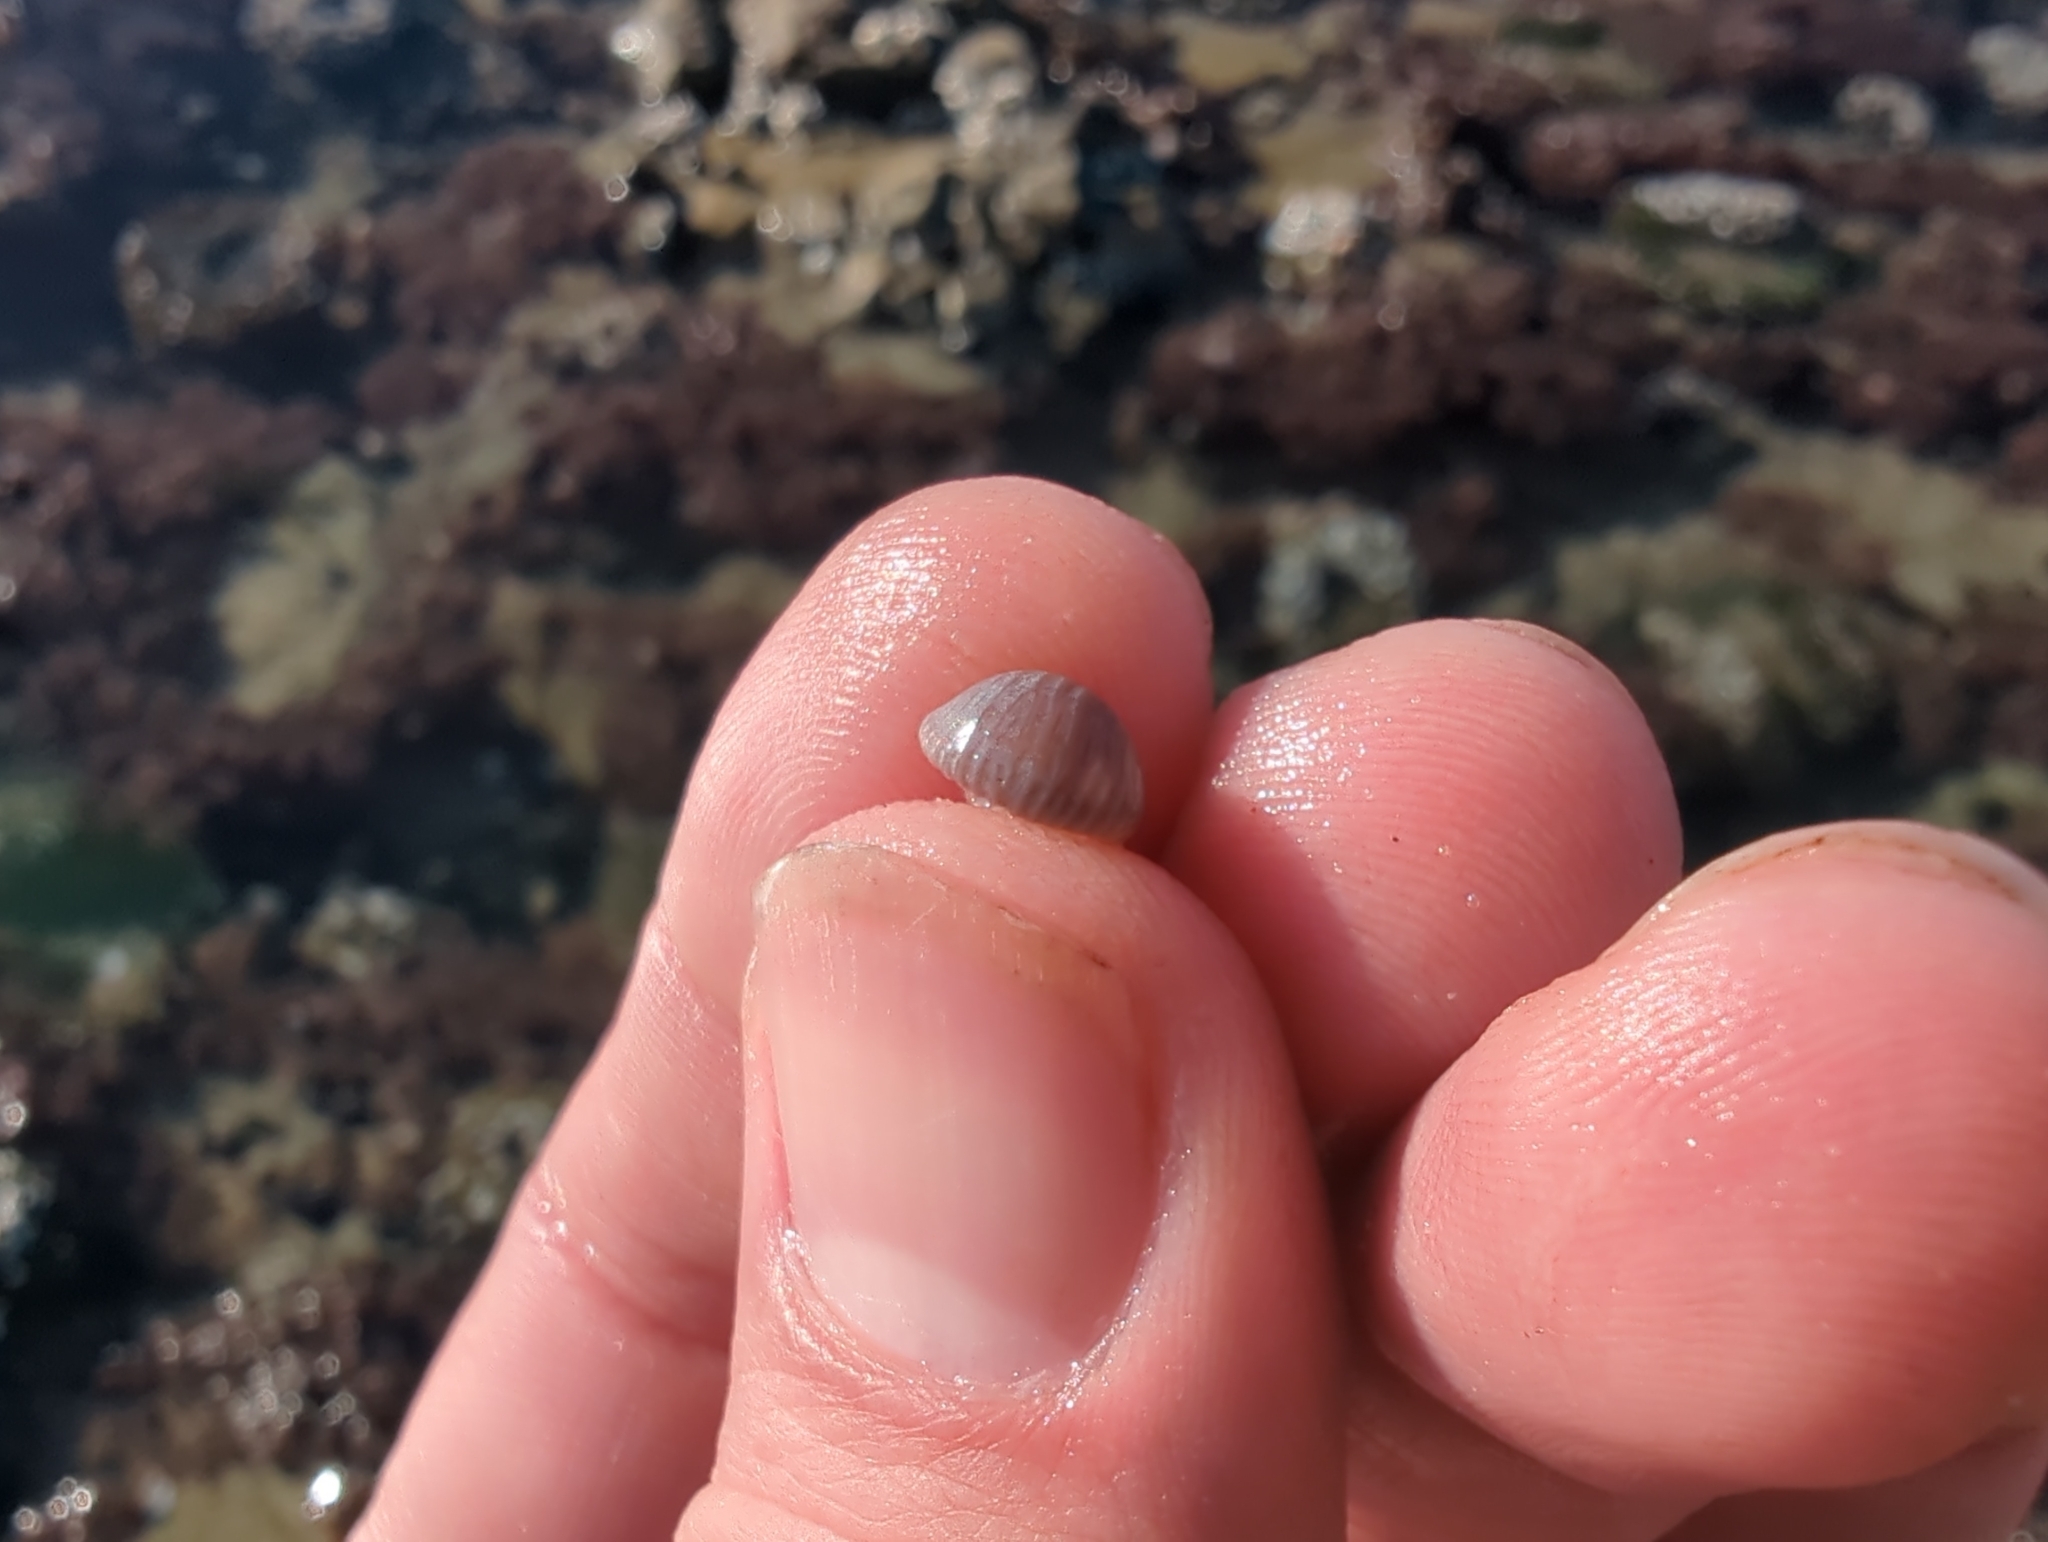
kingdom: Animalia
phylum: Mollusca
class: Gastropoda
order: Littorinimorpha
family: Triviidae
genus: Pseudopusula
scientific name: Pseudopusula californiana
